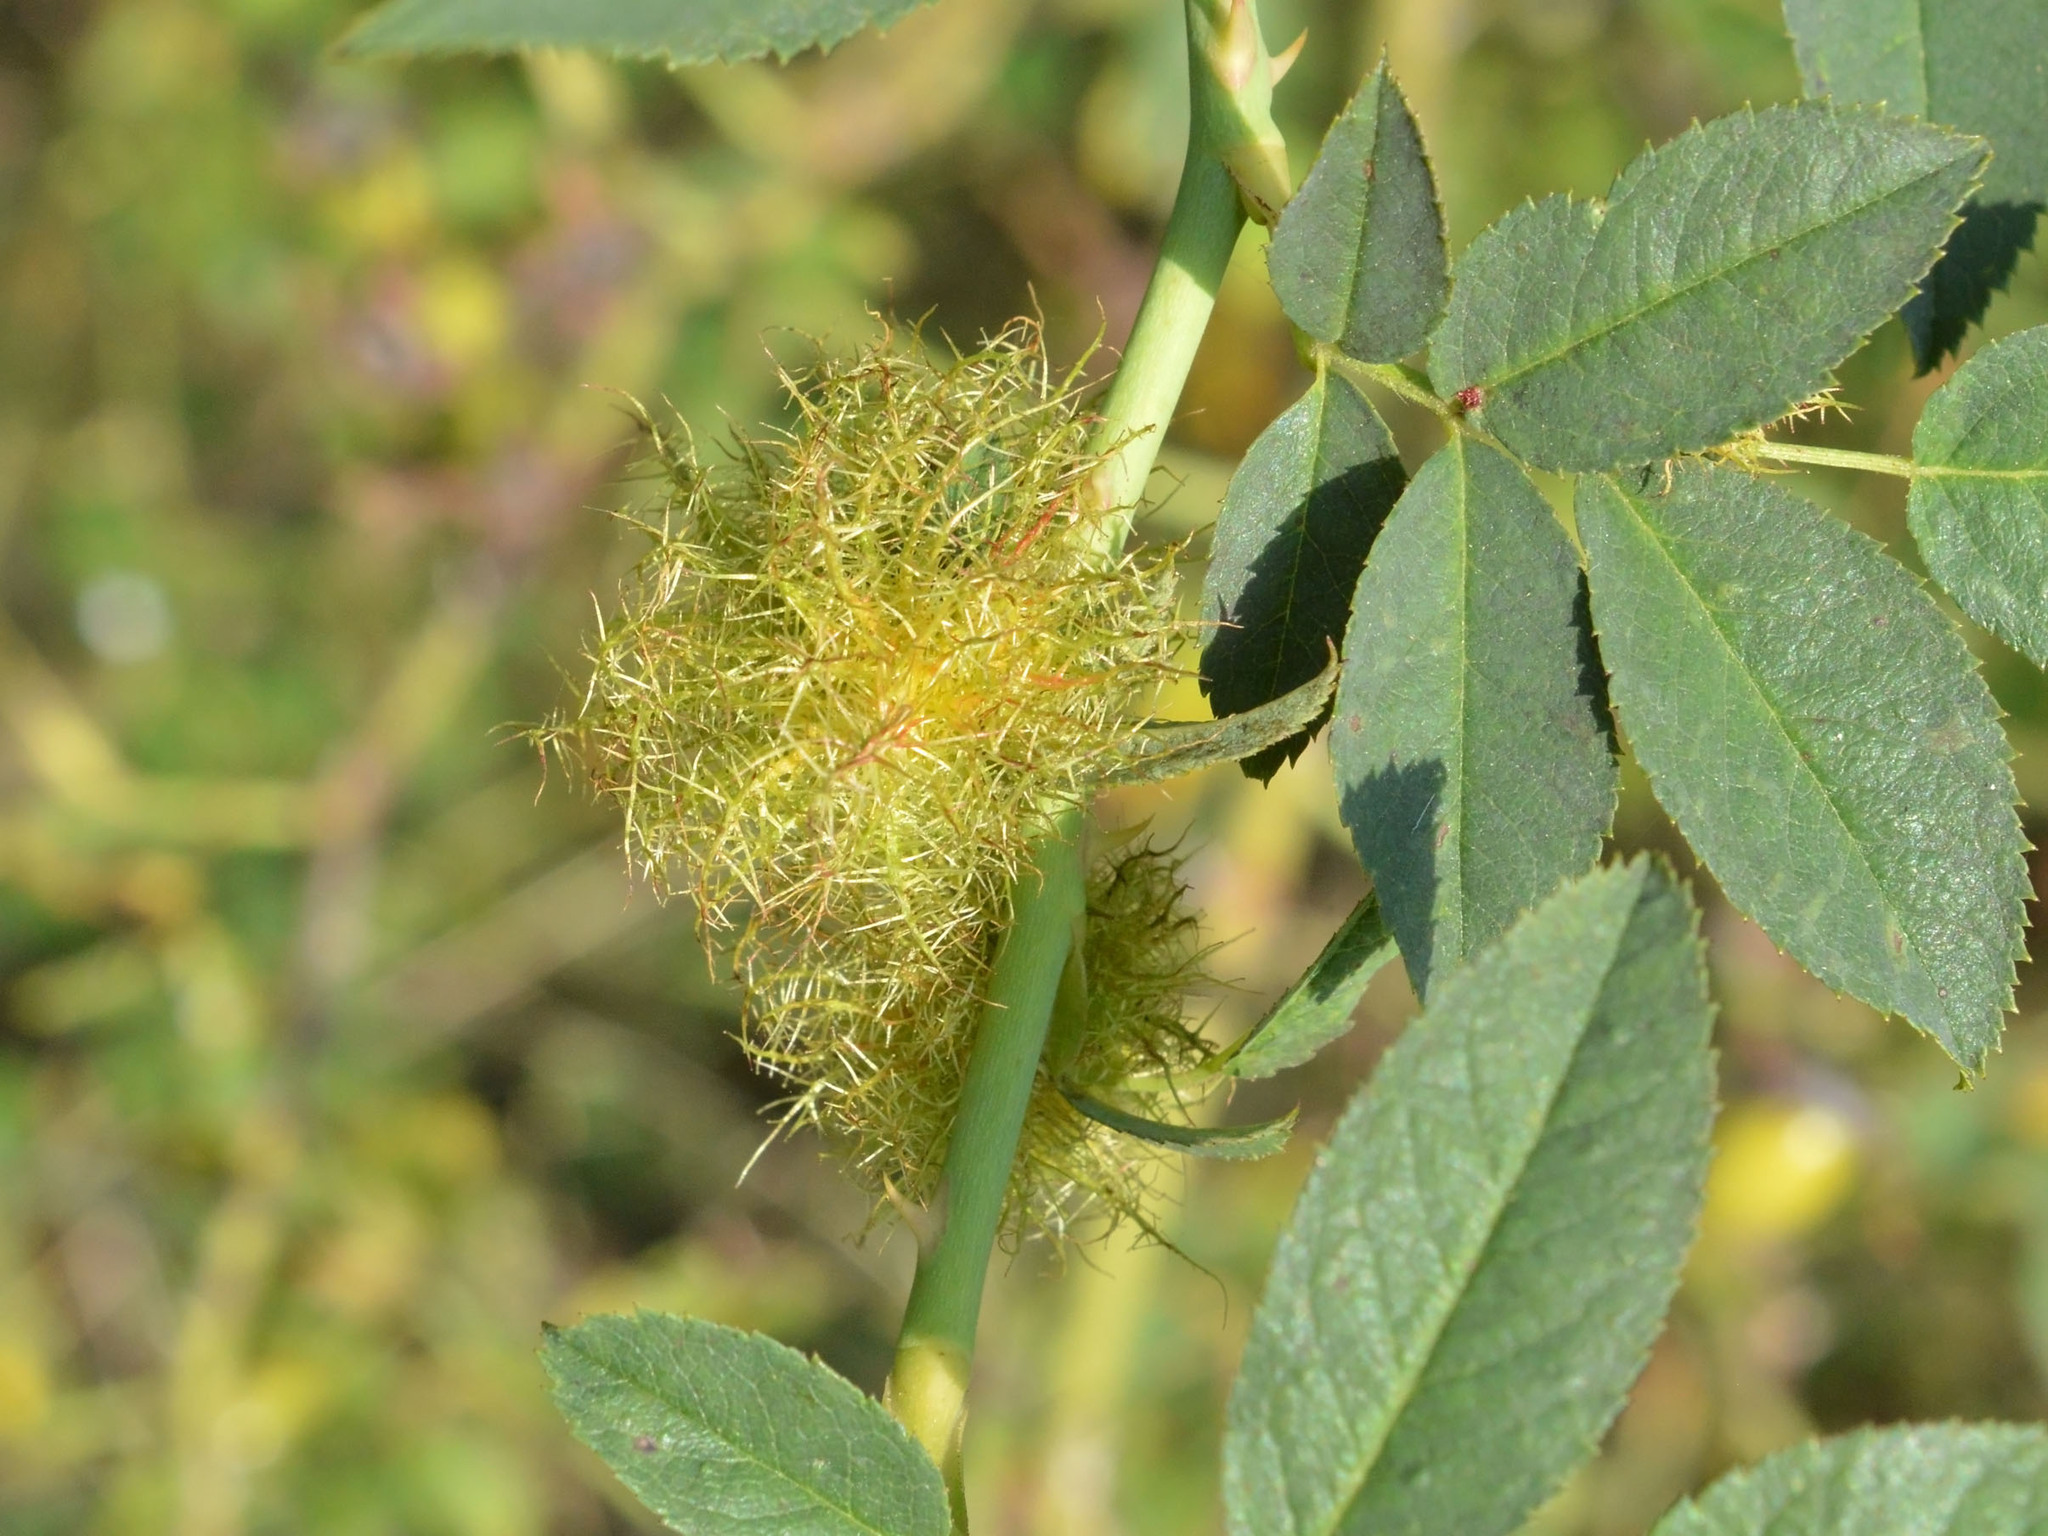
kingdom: Animalia
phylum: Arthropoda
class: Insecta
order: Hymenoptera
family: Cynipidae
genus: Diplolepis
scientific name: Diplolepis rosae
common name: Bedeguar gall
